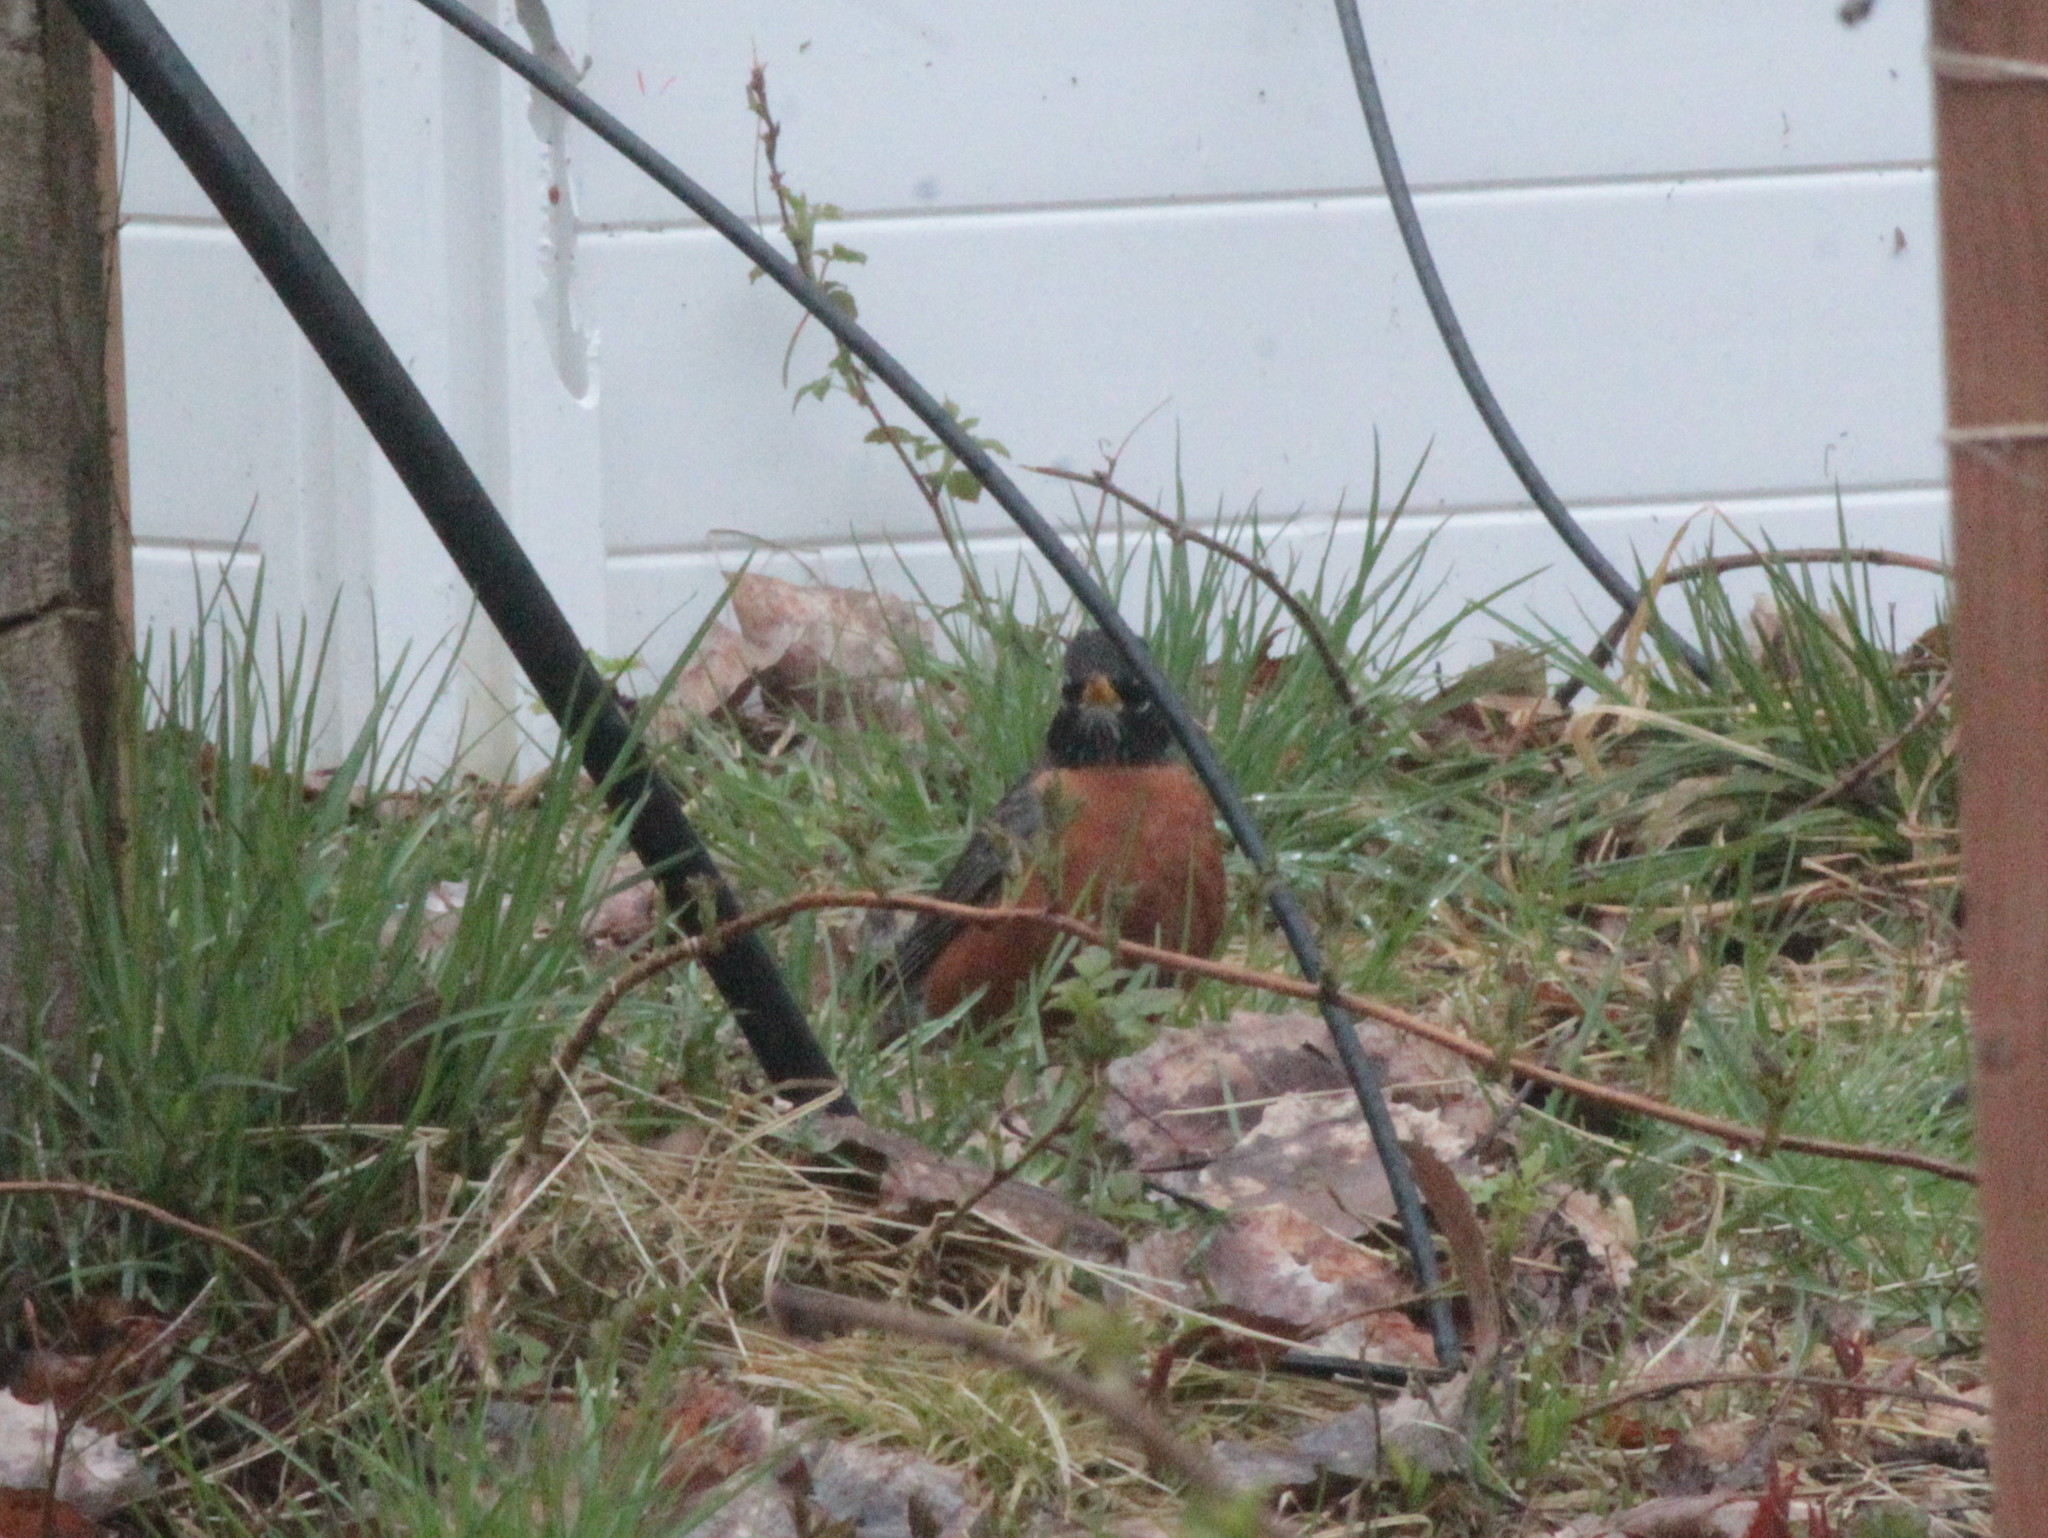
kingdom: Animalia
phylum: Chordata
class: Aves
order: Passeriformes
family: Turdidae
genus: Turdus
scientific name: Turdus migratorius
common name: American robin
